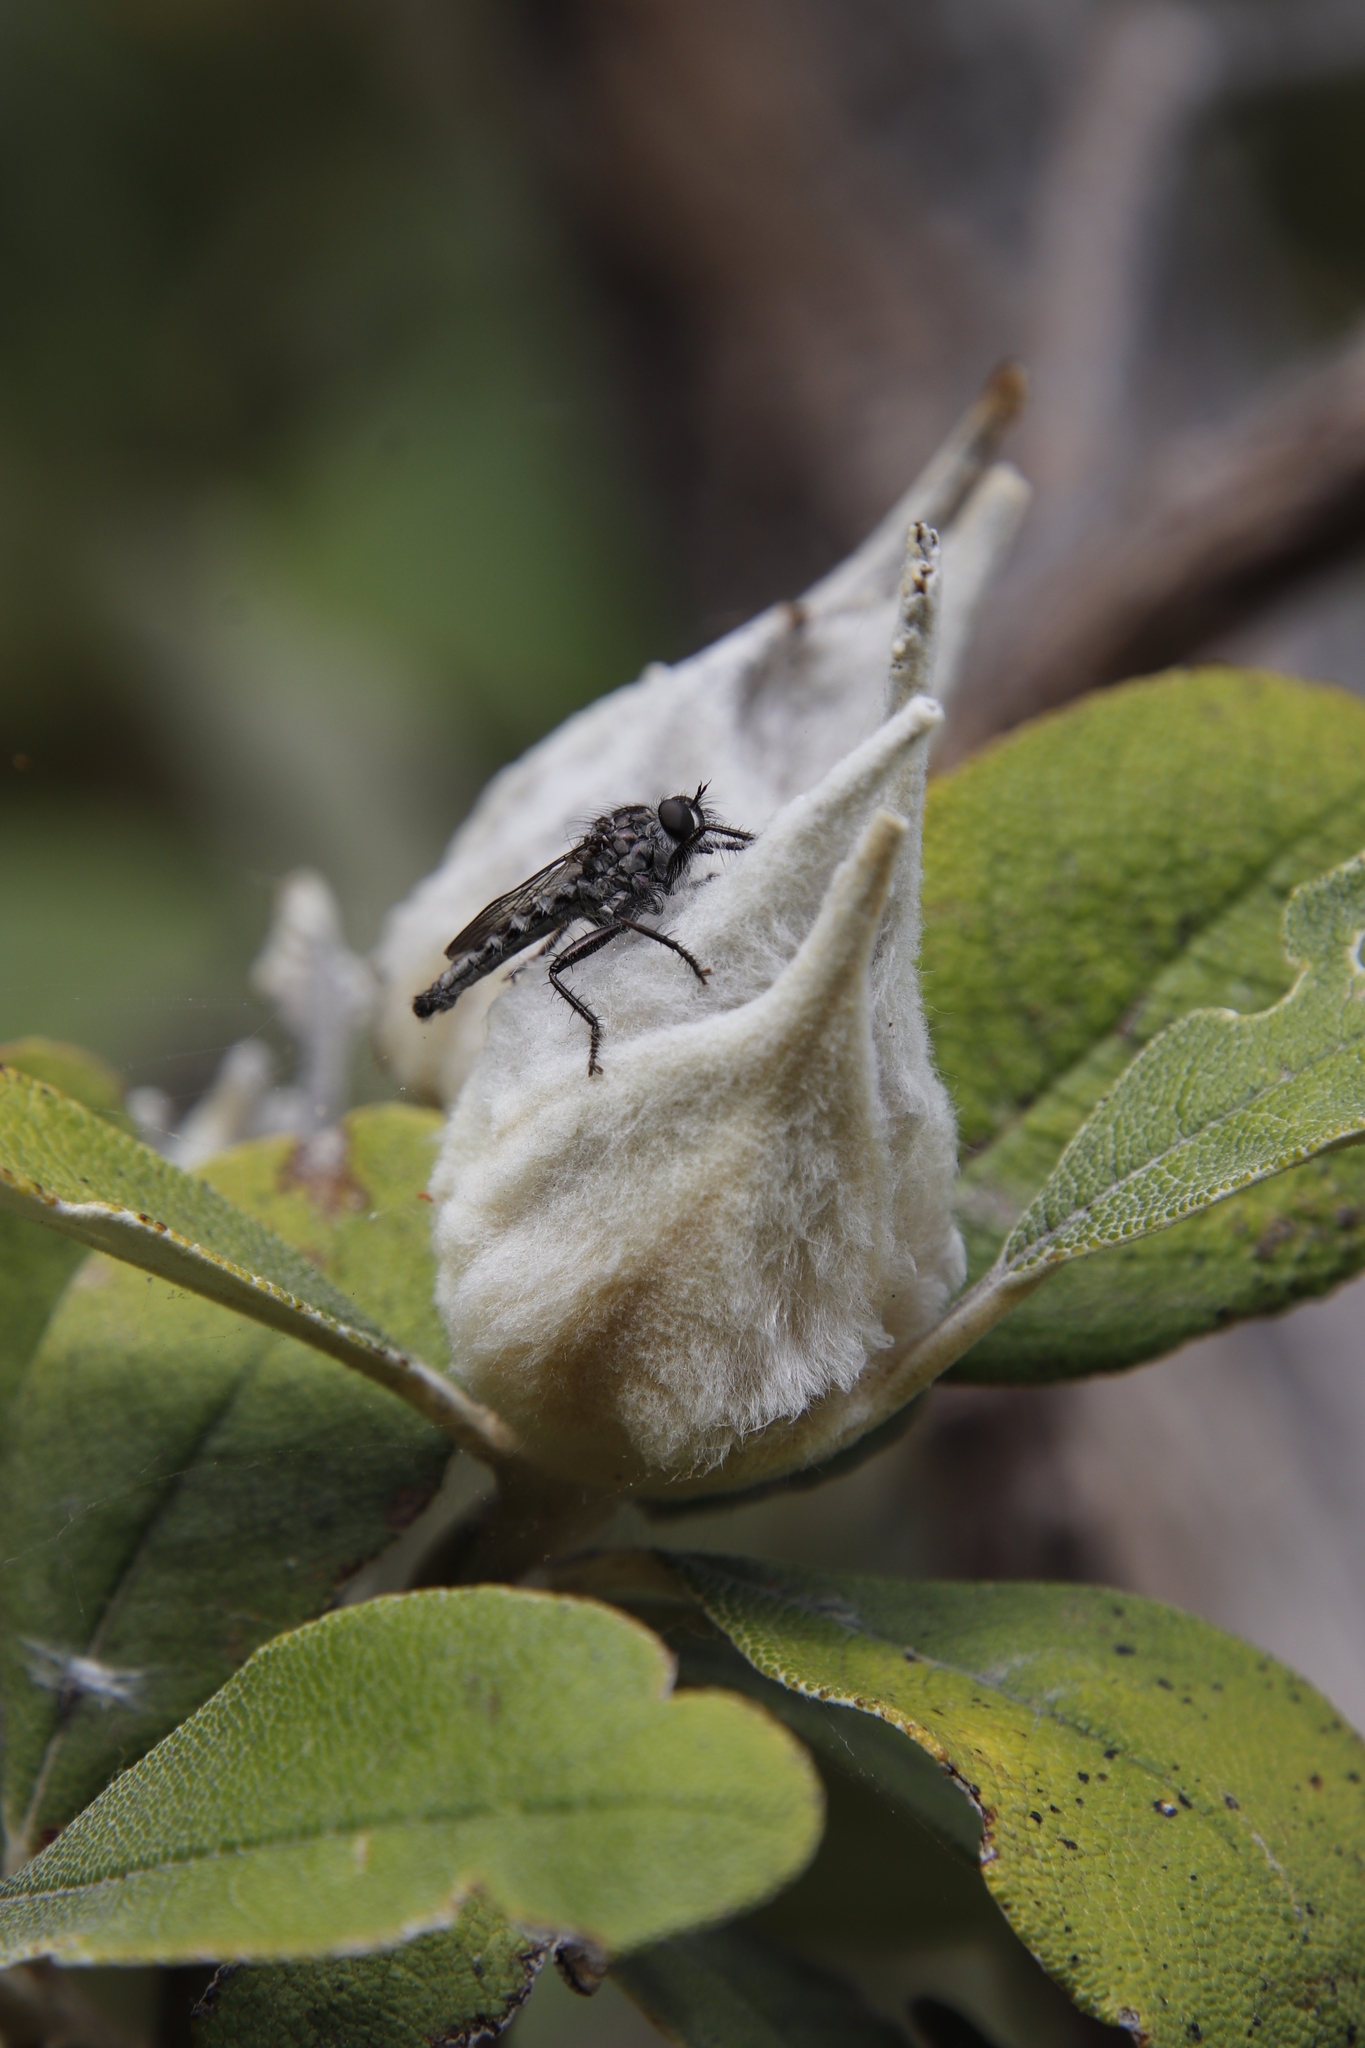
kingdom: Plantae
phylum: Tracheophyta
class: Magnoliopsida
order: Asterales
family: Asteraceae
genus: Tarchonanthus
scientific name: Tarchonanthus littoralis
